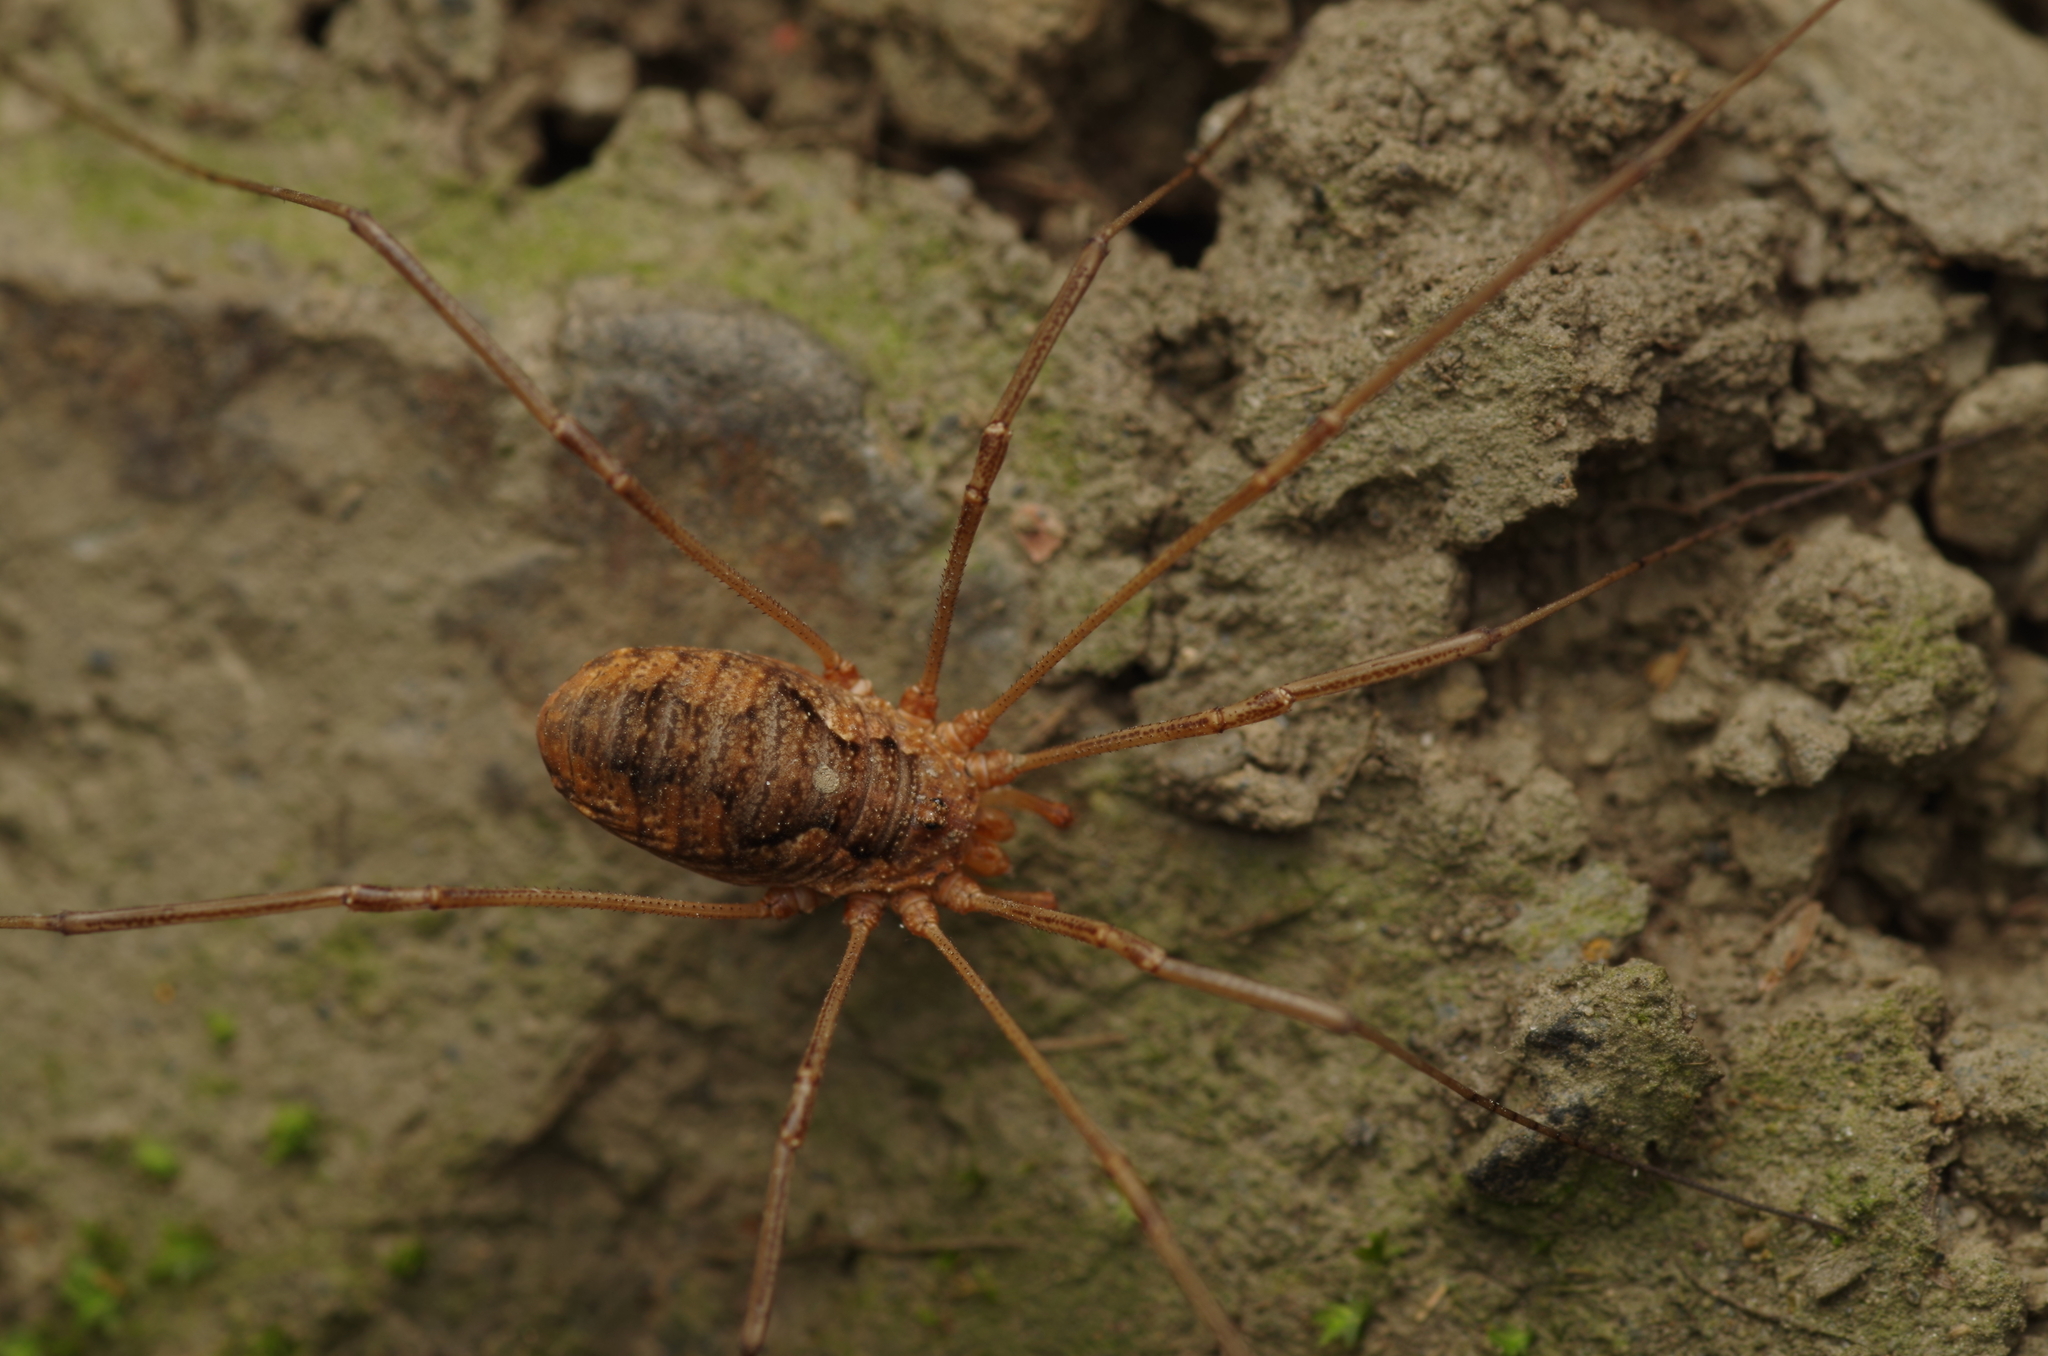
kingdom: Animalia
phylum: Arthropoda
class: Arachnida
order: Opiliones
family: Phalangiidae
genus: Phalangium
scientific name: Phalangium opilio
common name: Daddy longleg
